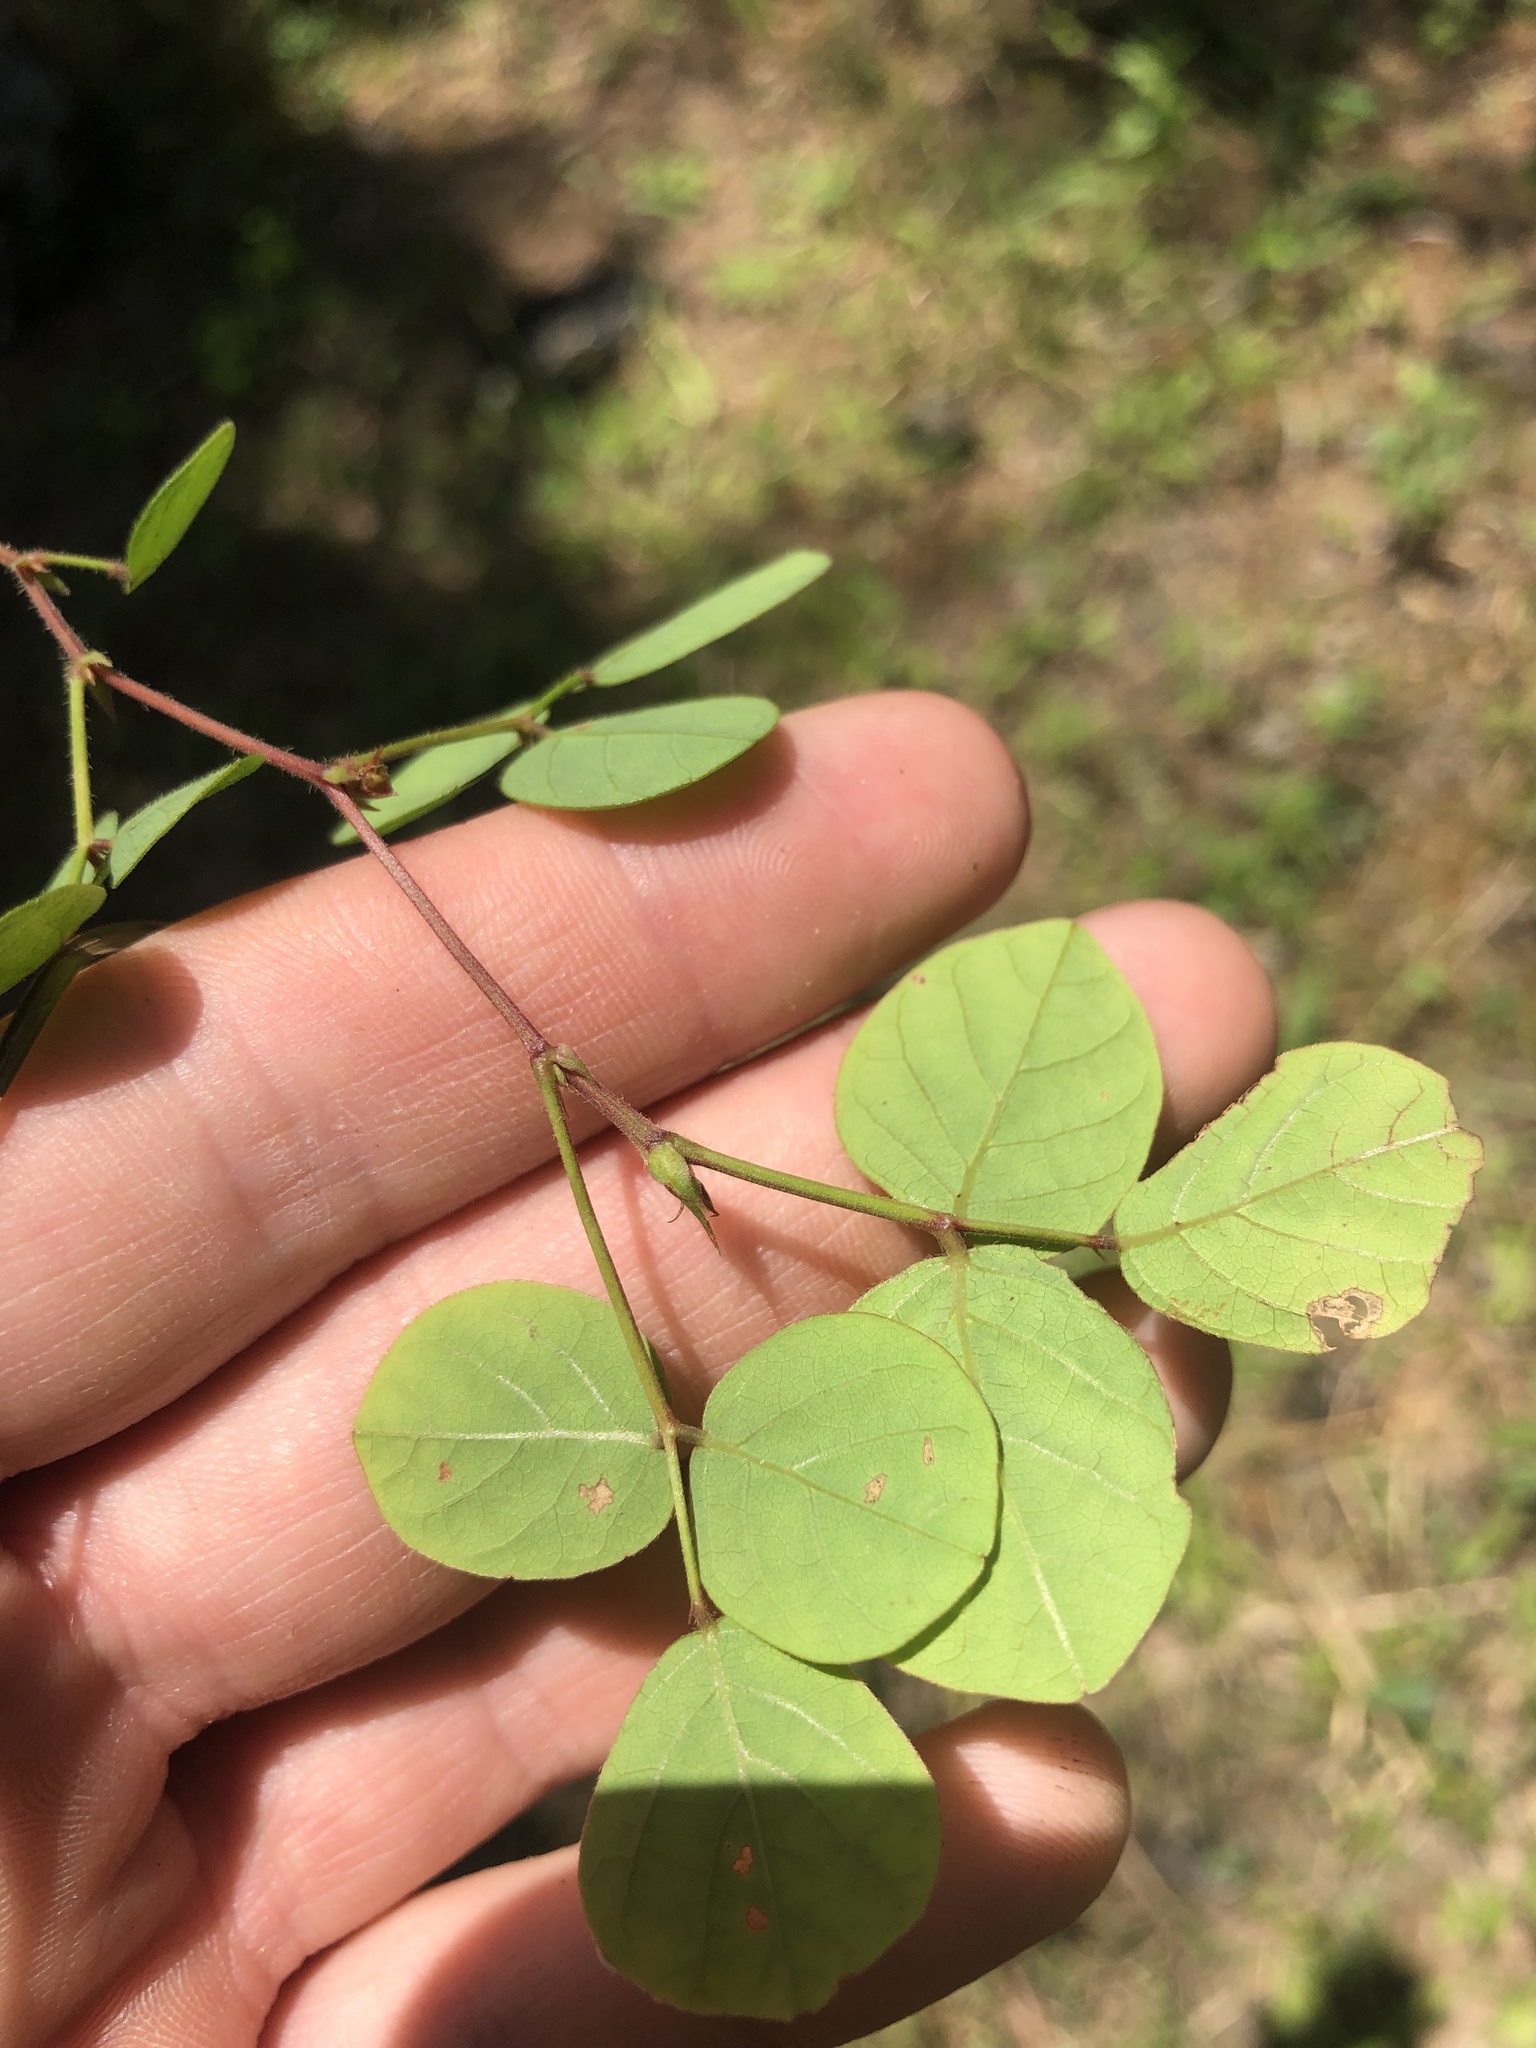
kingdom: Plantae
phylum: Tracheophyta
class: Magnoliopsida
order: Fabales
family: Fabaceae
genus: Desmodium
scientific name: Desmodium lineatum
